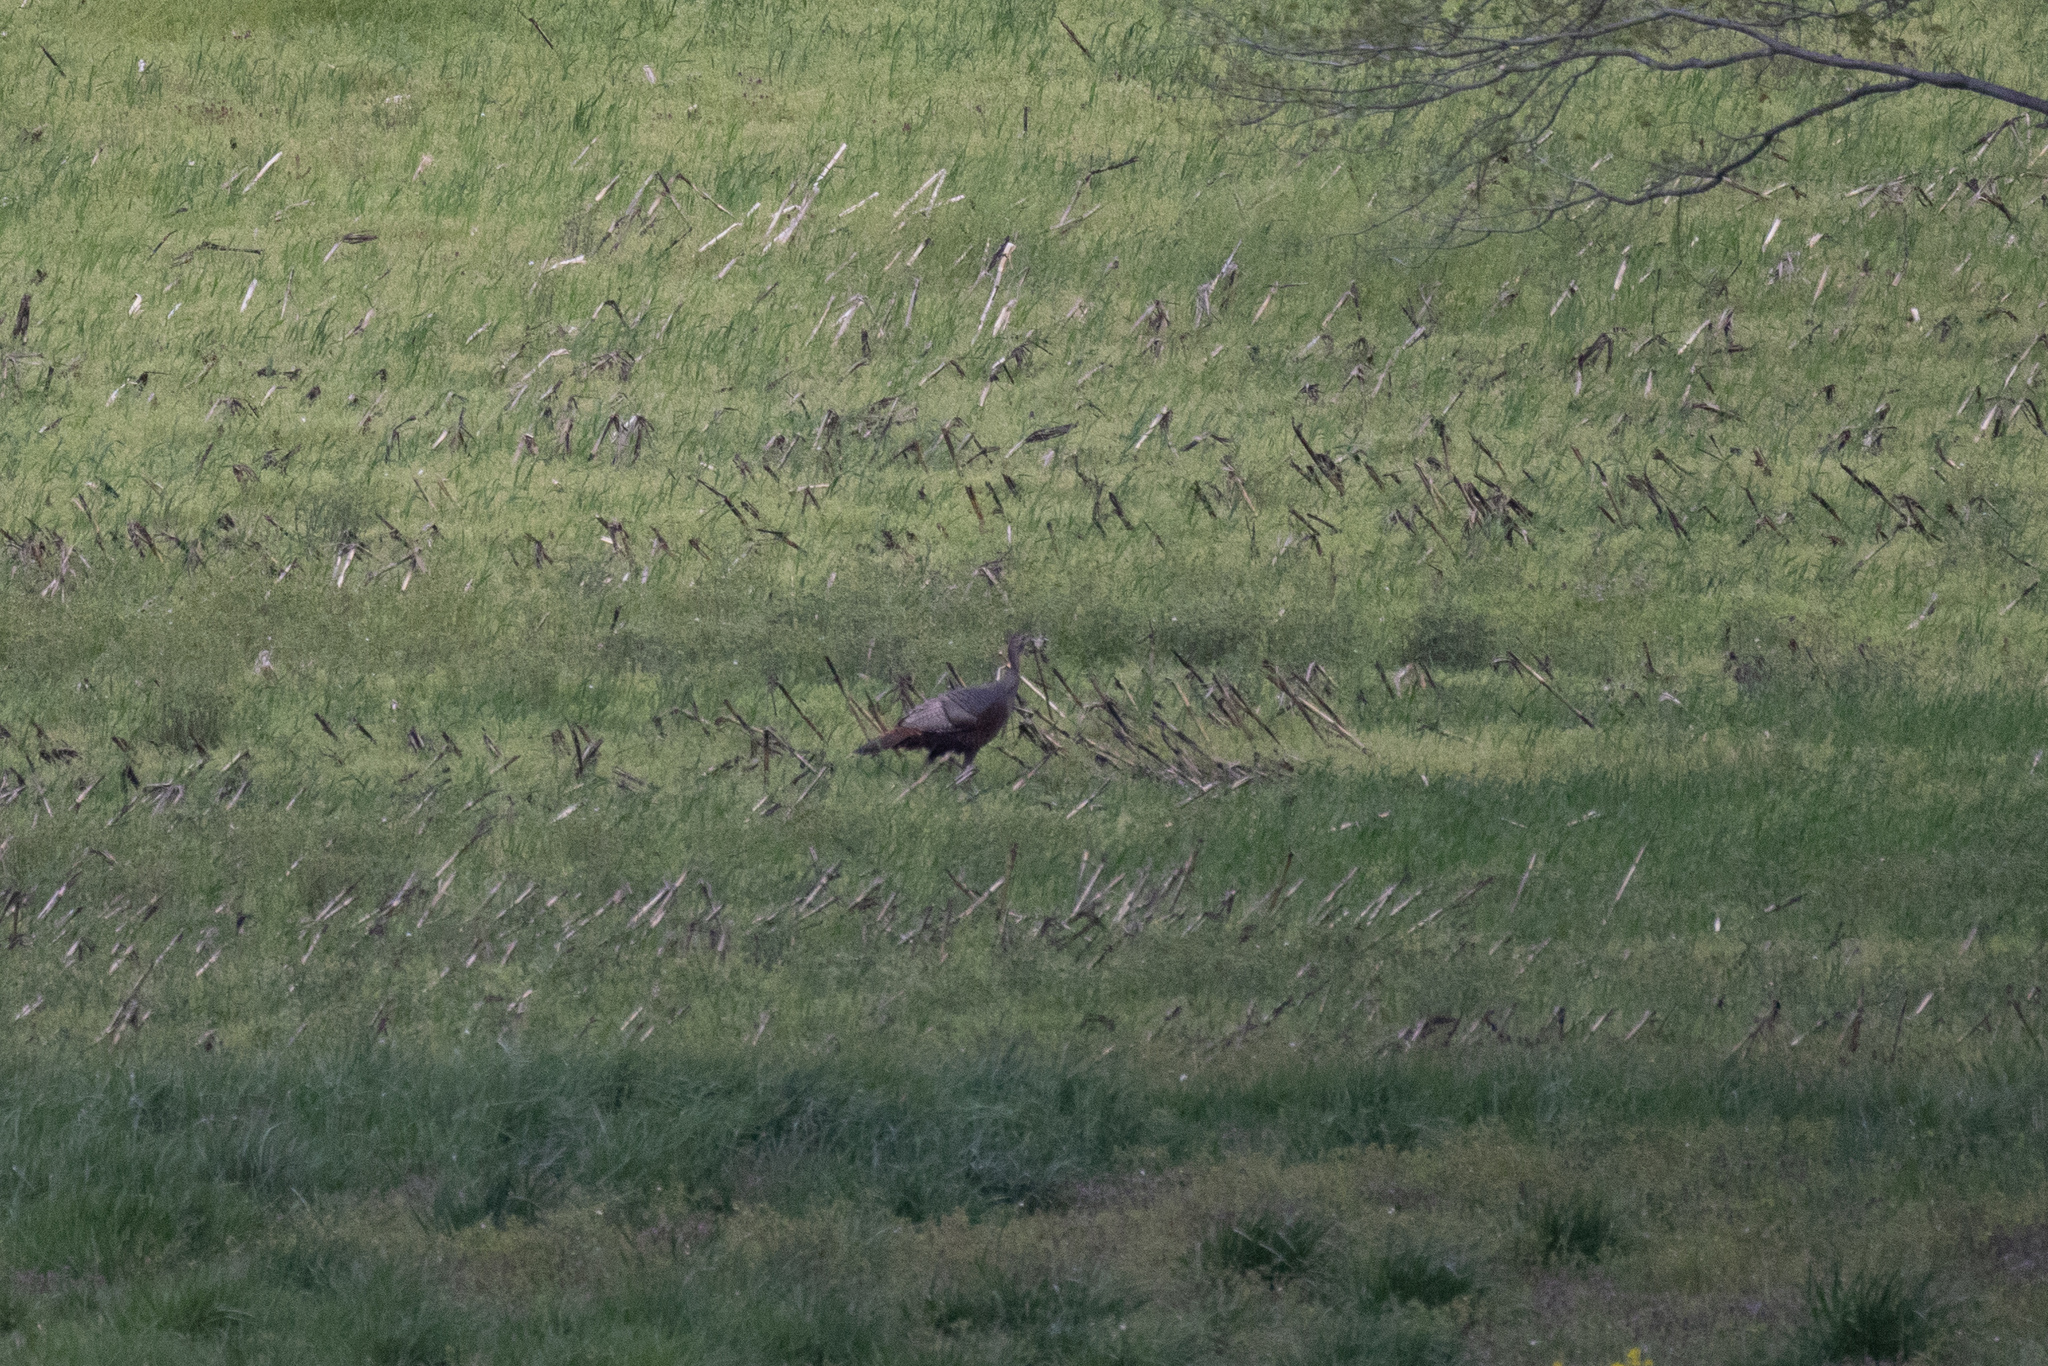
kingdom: Animalia
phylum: Chordata
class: Aves
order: Galliformes
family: Phasianidae
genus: Meleagris
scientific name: Meleagris gallopavo
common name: Wild turkey
